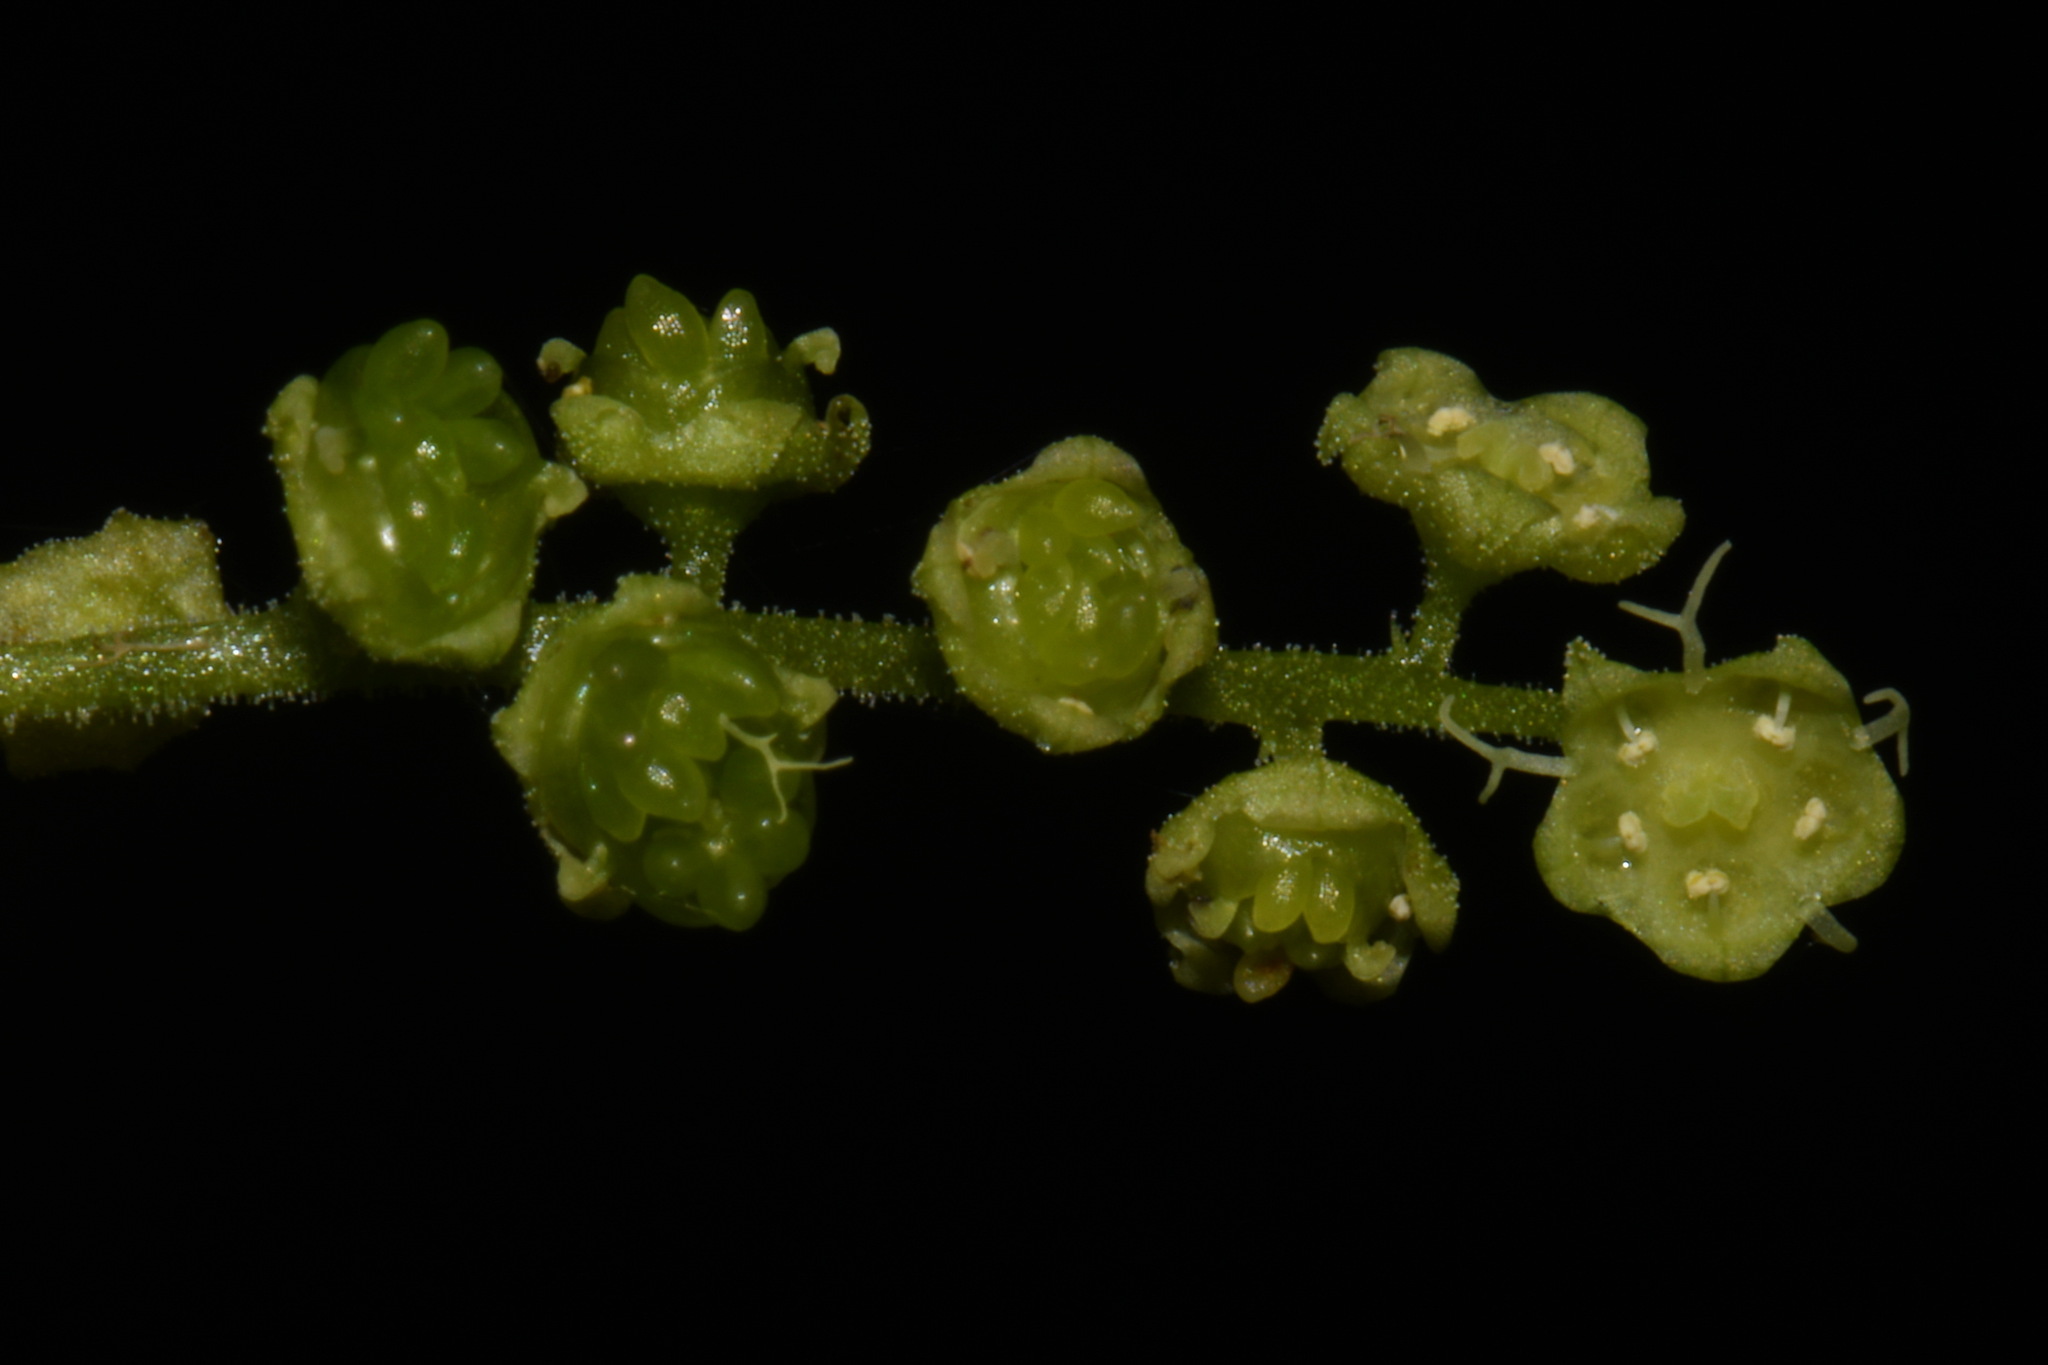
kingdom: Plantae
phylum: Tracheophyta
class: Magnoliopsida
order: Saxifragales
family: Saxifragaceae
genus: Brewerimitella
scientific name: Brewerimitella ovalis
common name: Coastal bishop's-cap
